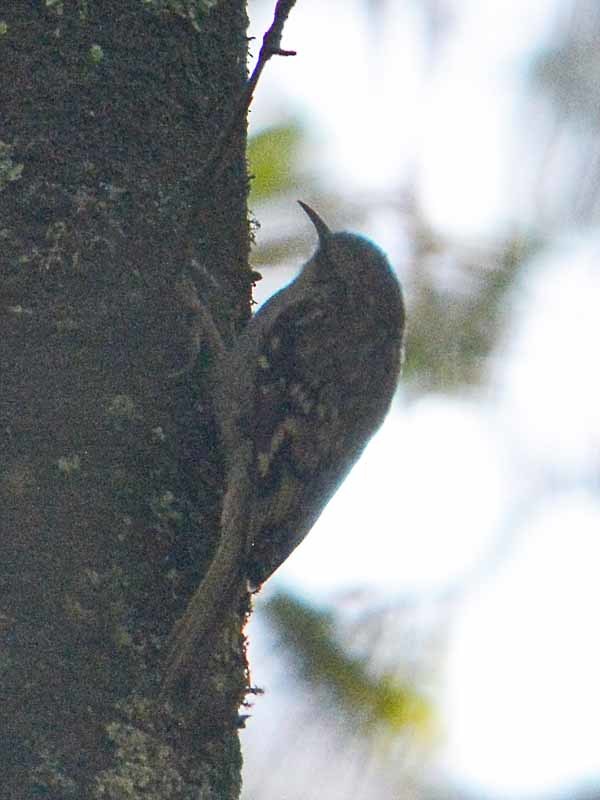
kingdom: Animalia
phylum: Chordata
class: Aves
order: Passeriformes
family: Certhiidae
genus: Certhia
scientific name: Certhia americana
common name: Brown creeper
